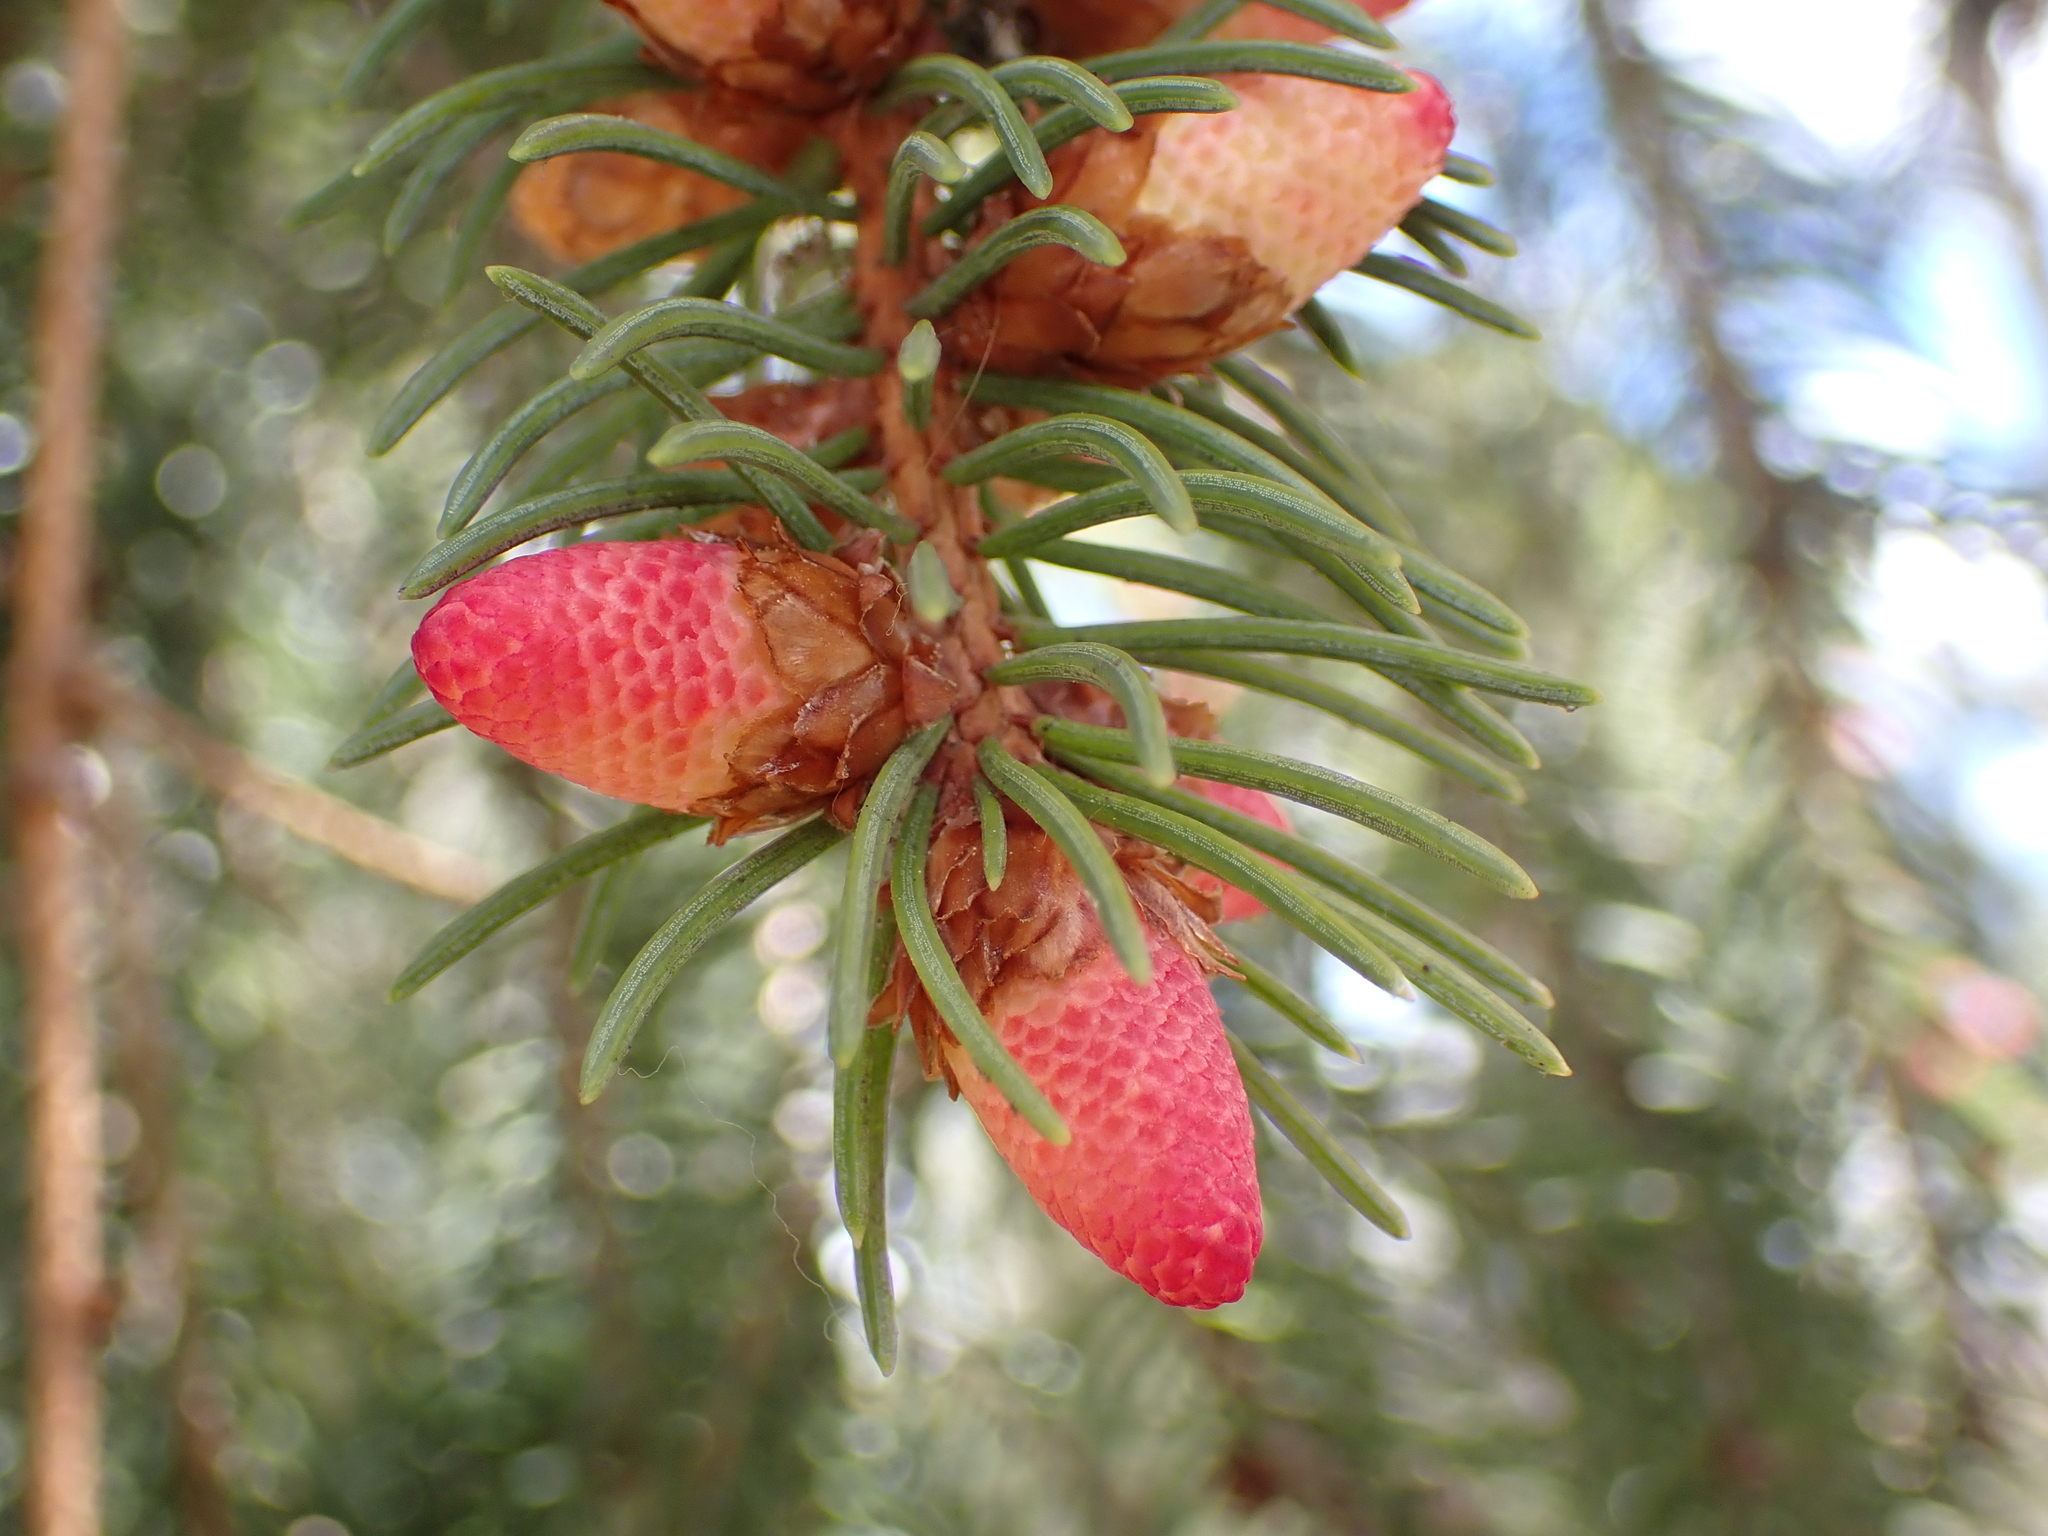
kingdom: Plantae
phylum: Tracheophyta
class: Pinopsida
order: Pinales
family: Pinaceae
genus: Picea
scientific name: Picea abies
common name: Norway spruce
